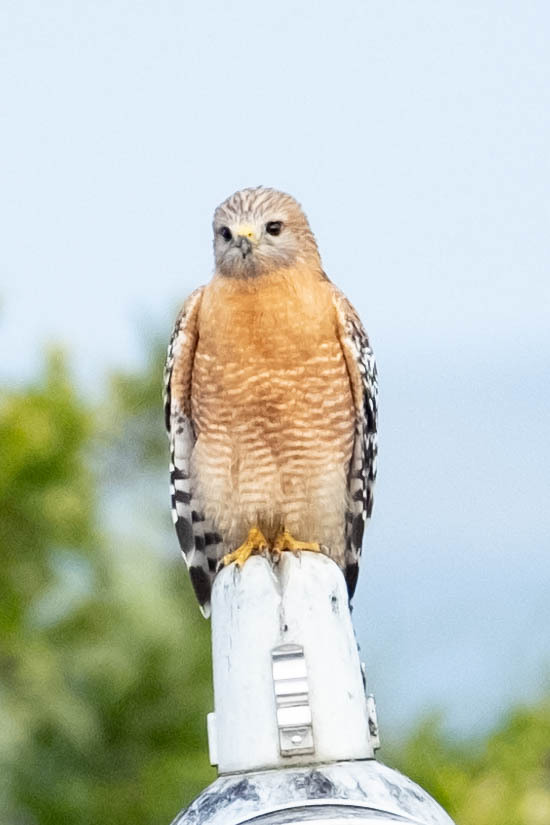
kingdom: Animalia
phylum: Chordata
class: Aves
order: Accipitriformes
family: Accipitridae
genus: Buteo
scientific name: Buteo lineatus
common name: Red-shouldered hawk
